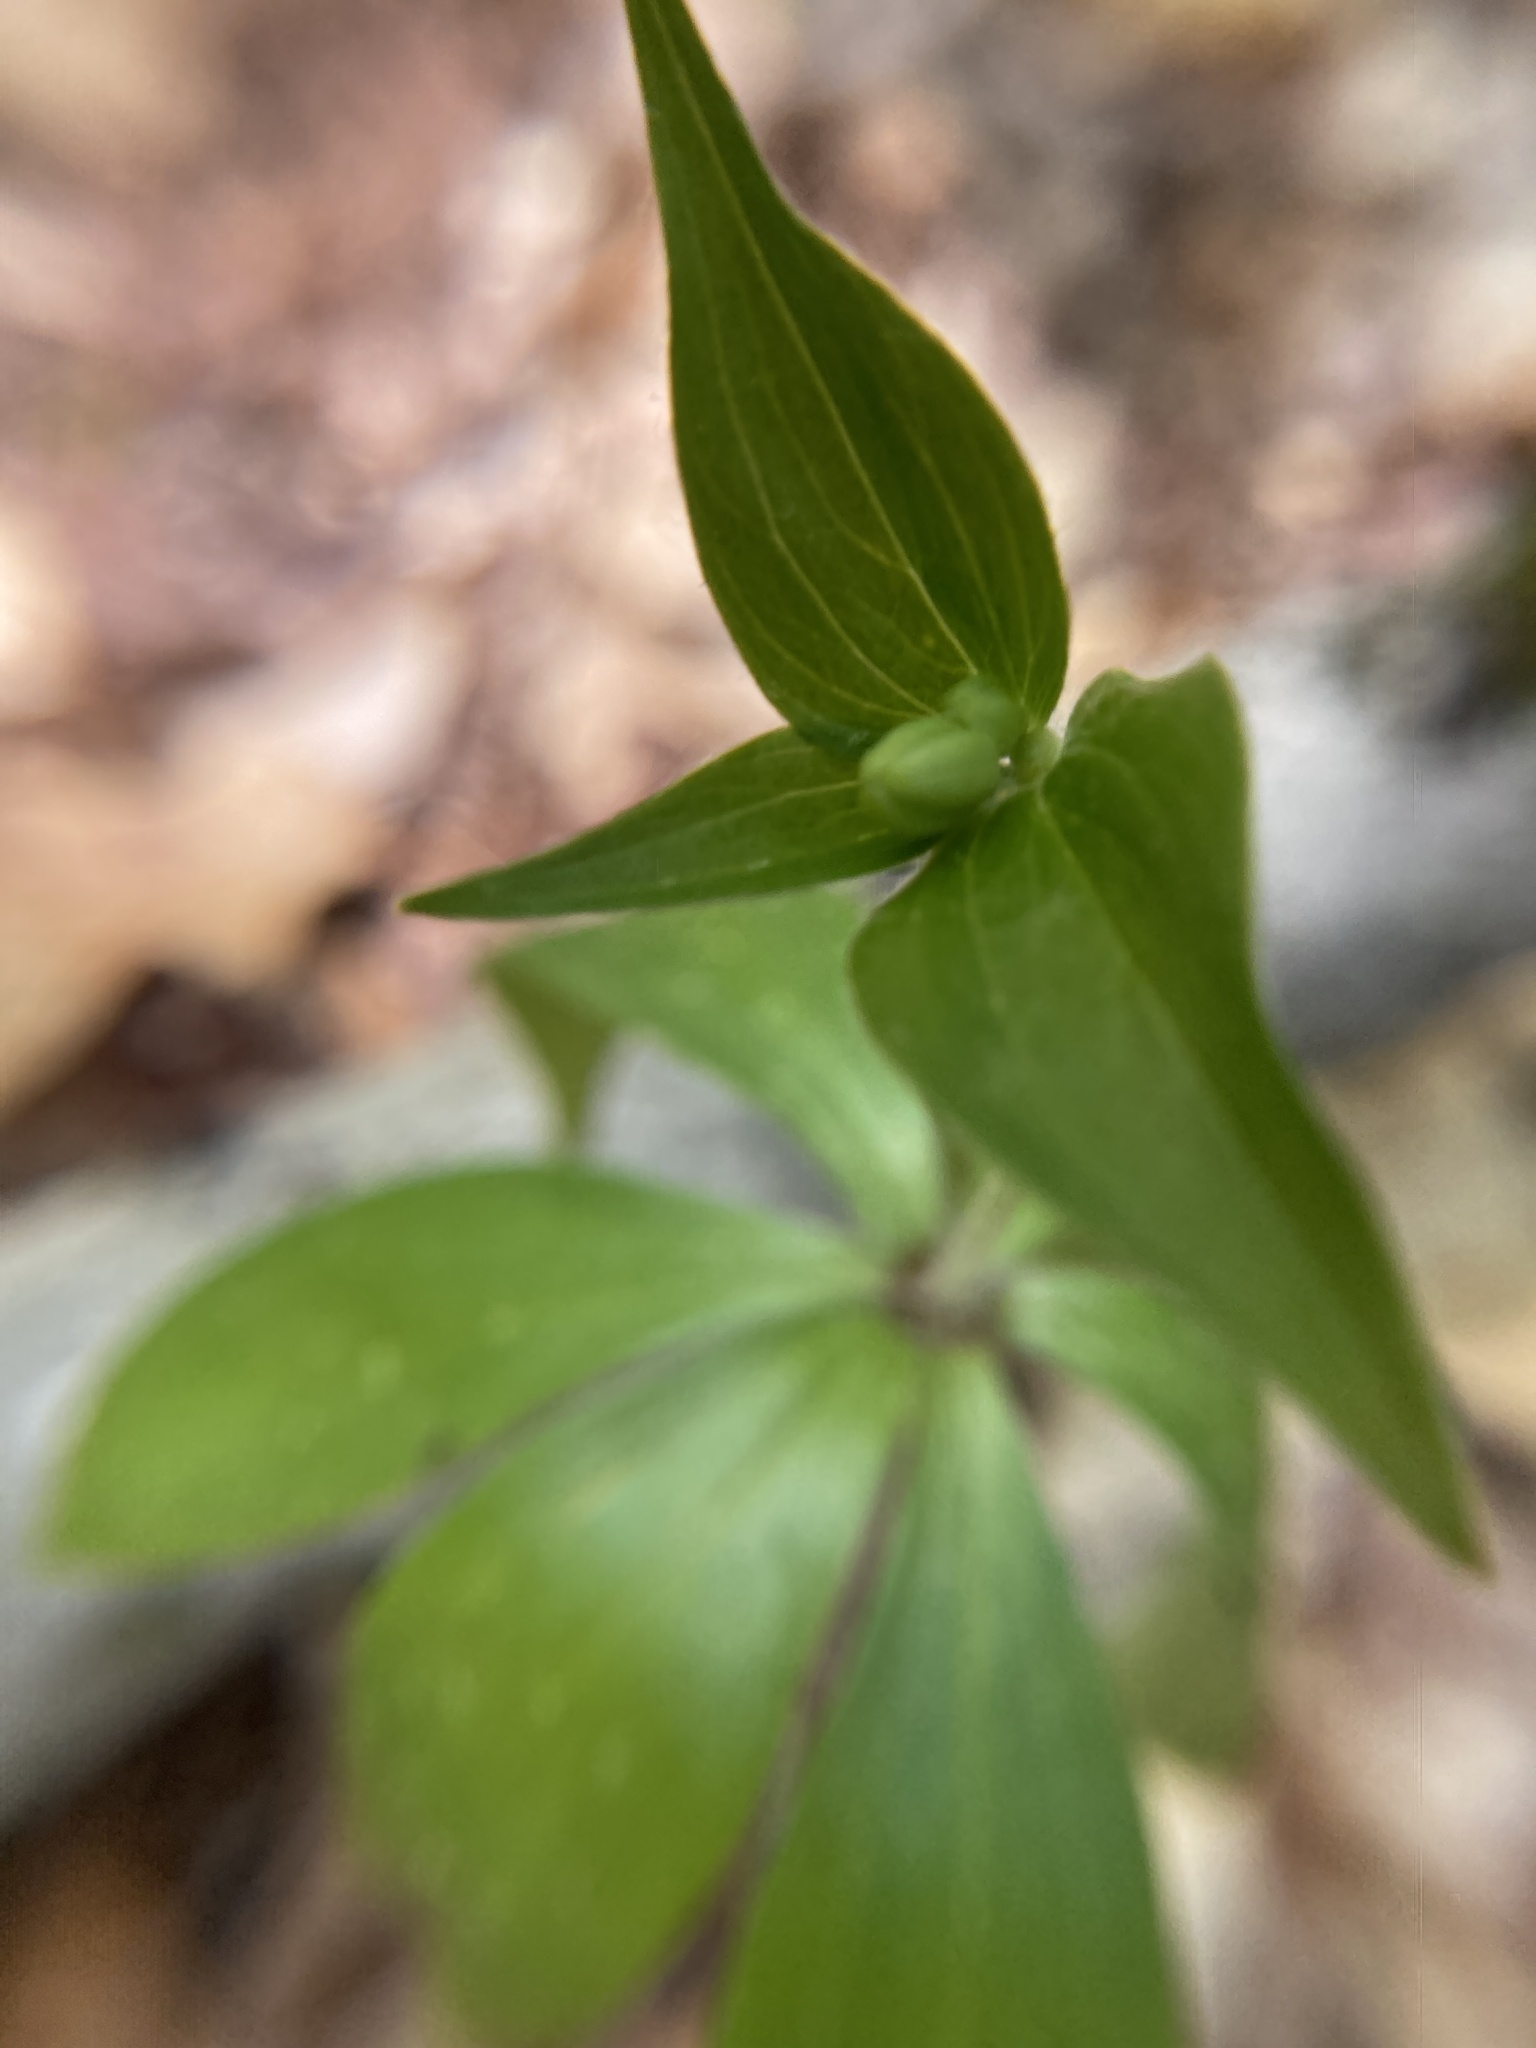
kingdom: Plantae
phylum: Tracheophyta
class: Liliopsida
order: Liliales
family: Liliaceae
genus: Medeola
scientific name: Medeola virginiana
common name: Indian cucumber-root
